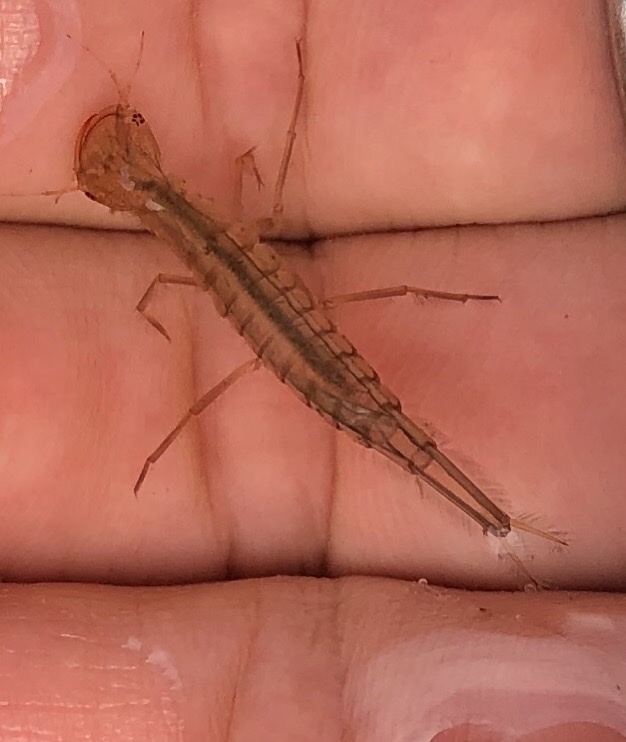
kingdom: Animalia
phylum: Arthropoda
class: Insecta
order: Coleoptera
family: Dytiscidae
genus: Dytiscus
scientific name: Dytiscus
